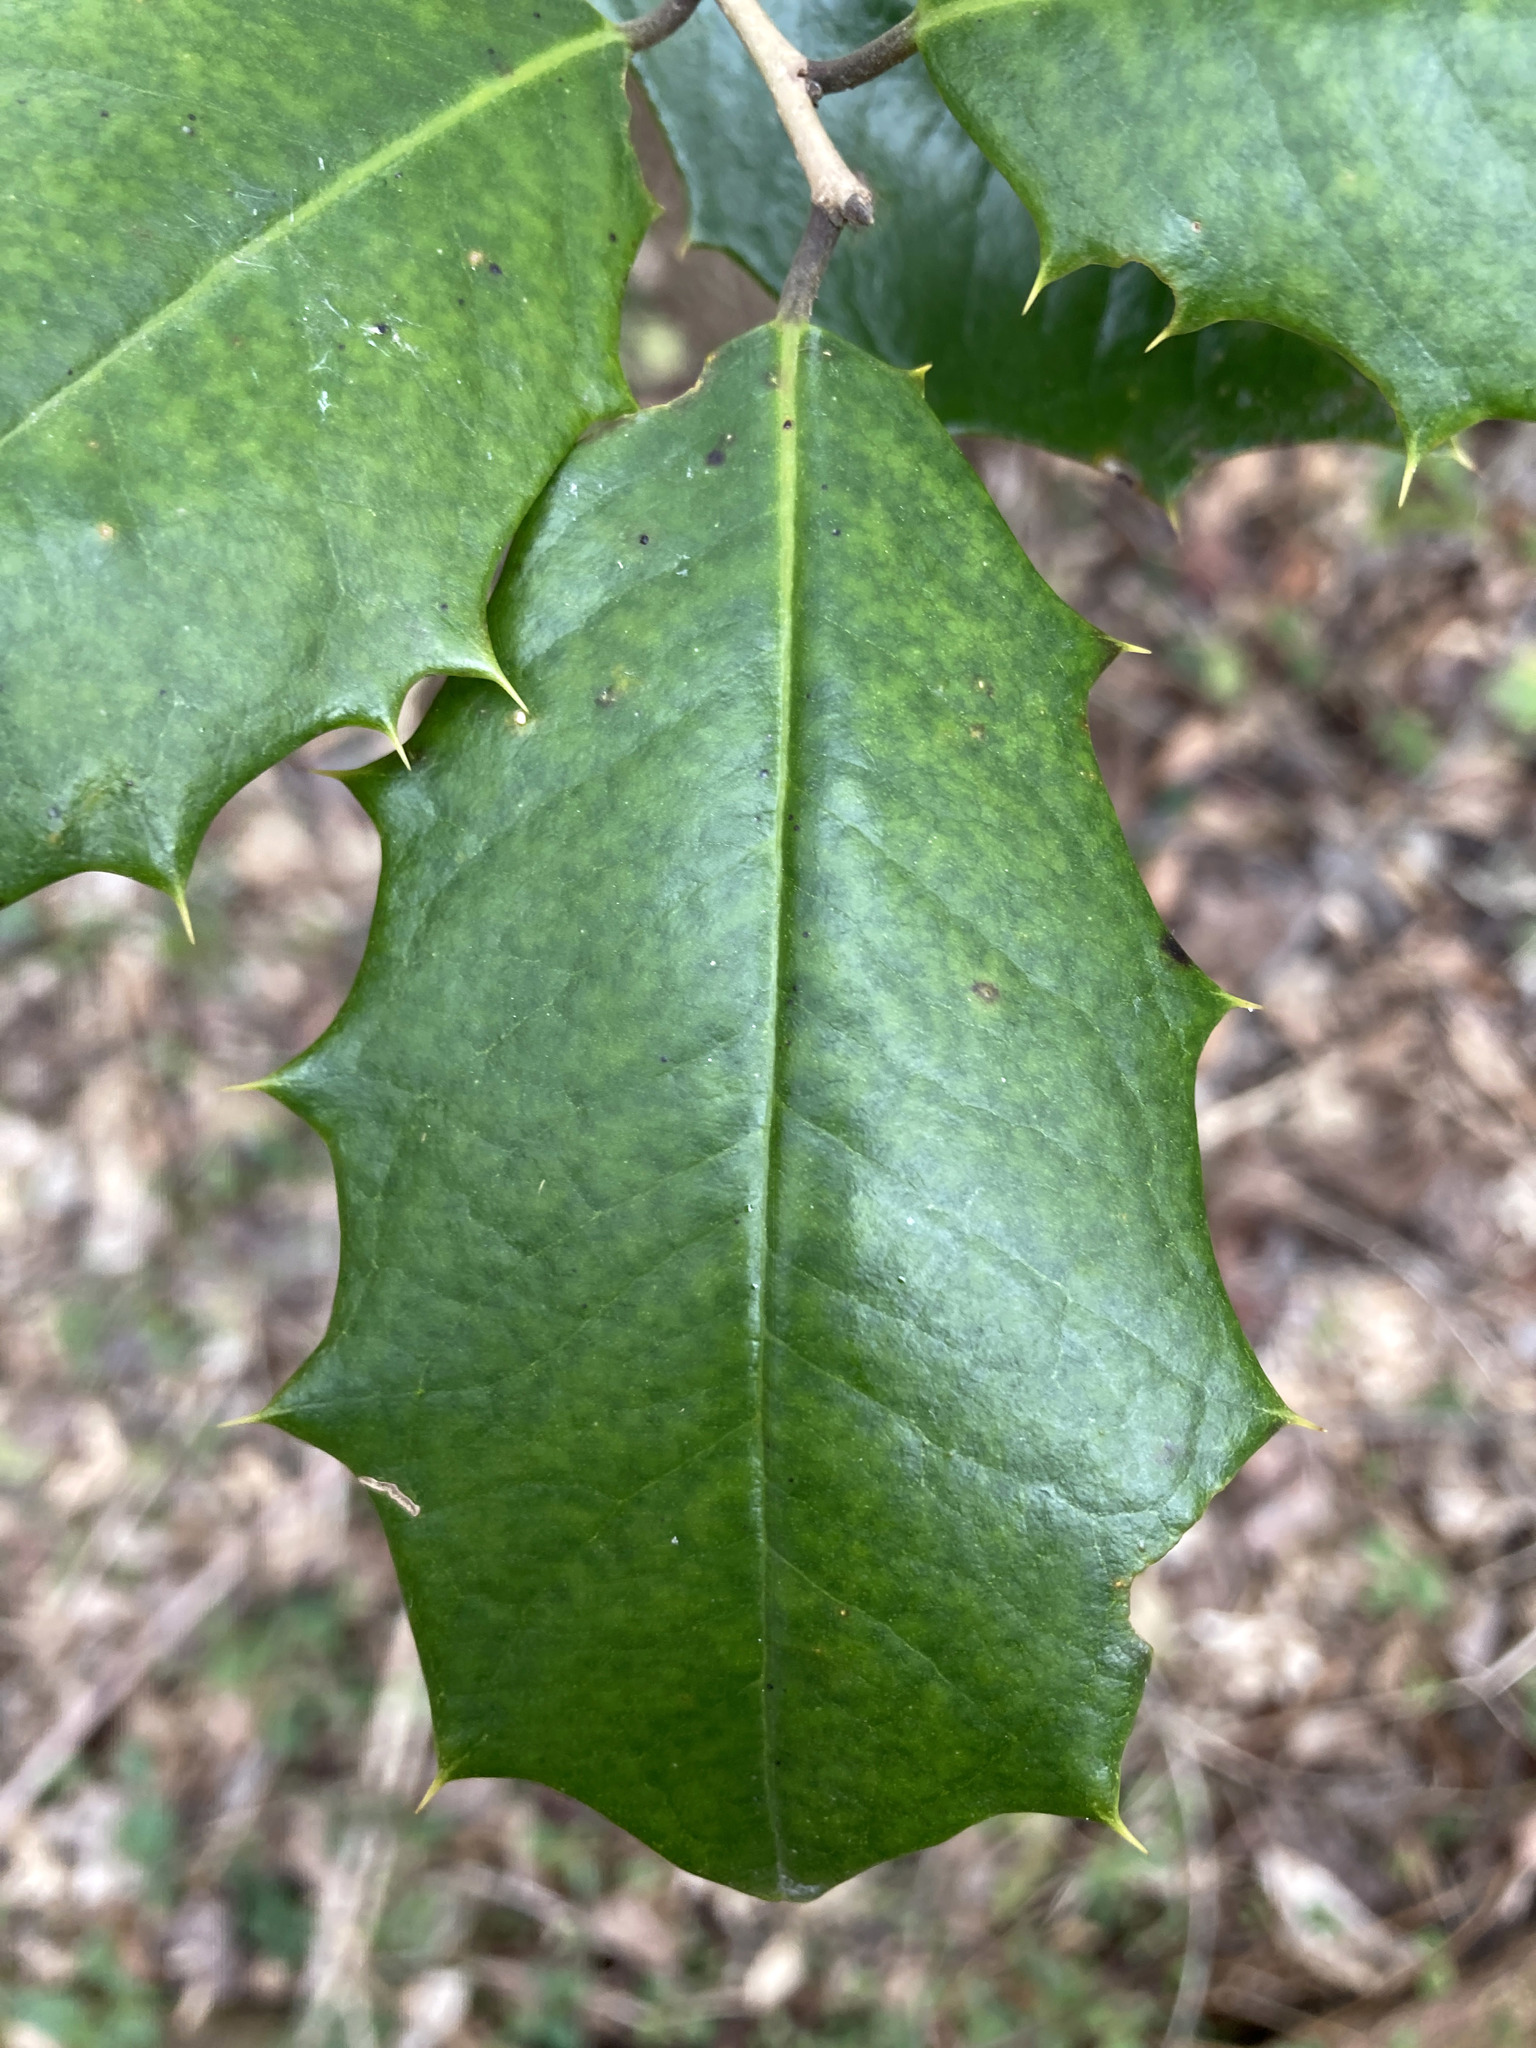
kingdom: Plantae
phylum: Tracheophyta
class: Magnoliopsida
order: Aquifoliales
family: Aquifoliaceae
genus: Ilex
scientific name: Ilex opaca
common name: American holly
